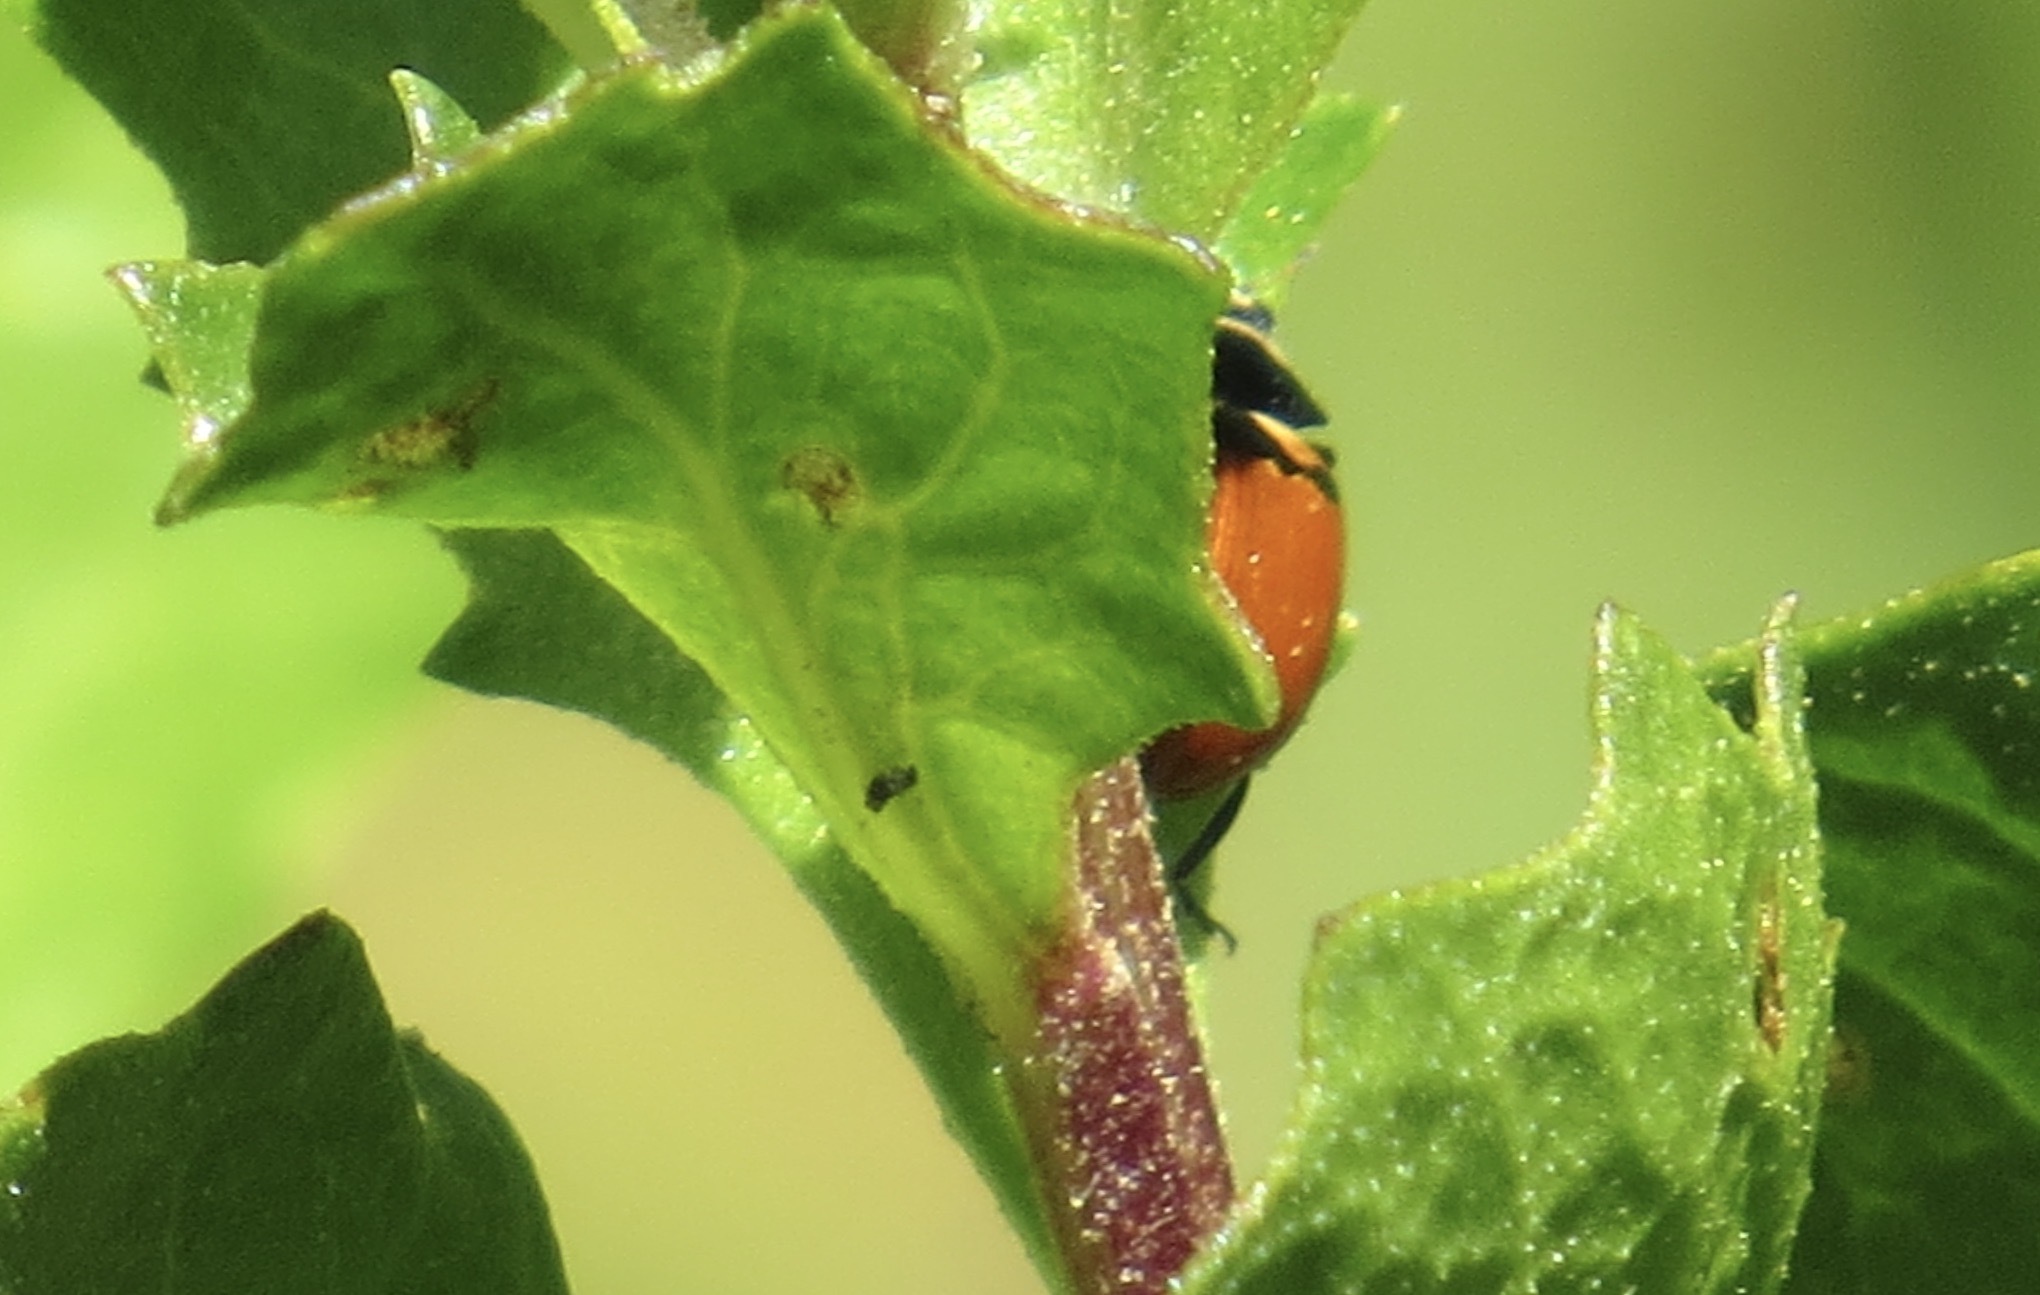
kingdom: Animalia
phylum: Arthropoda
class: Insecta
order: Coleoptera
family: Coccinellidae
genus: Coccinella
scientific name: Coccinella trifasciata
